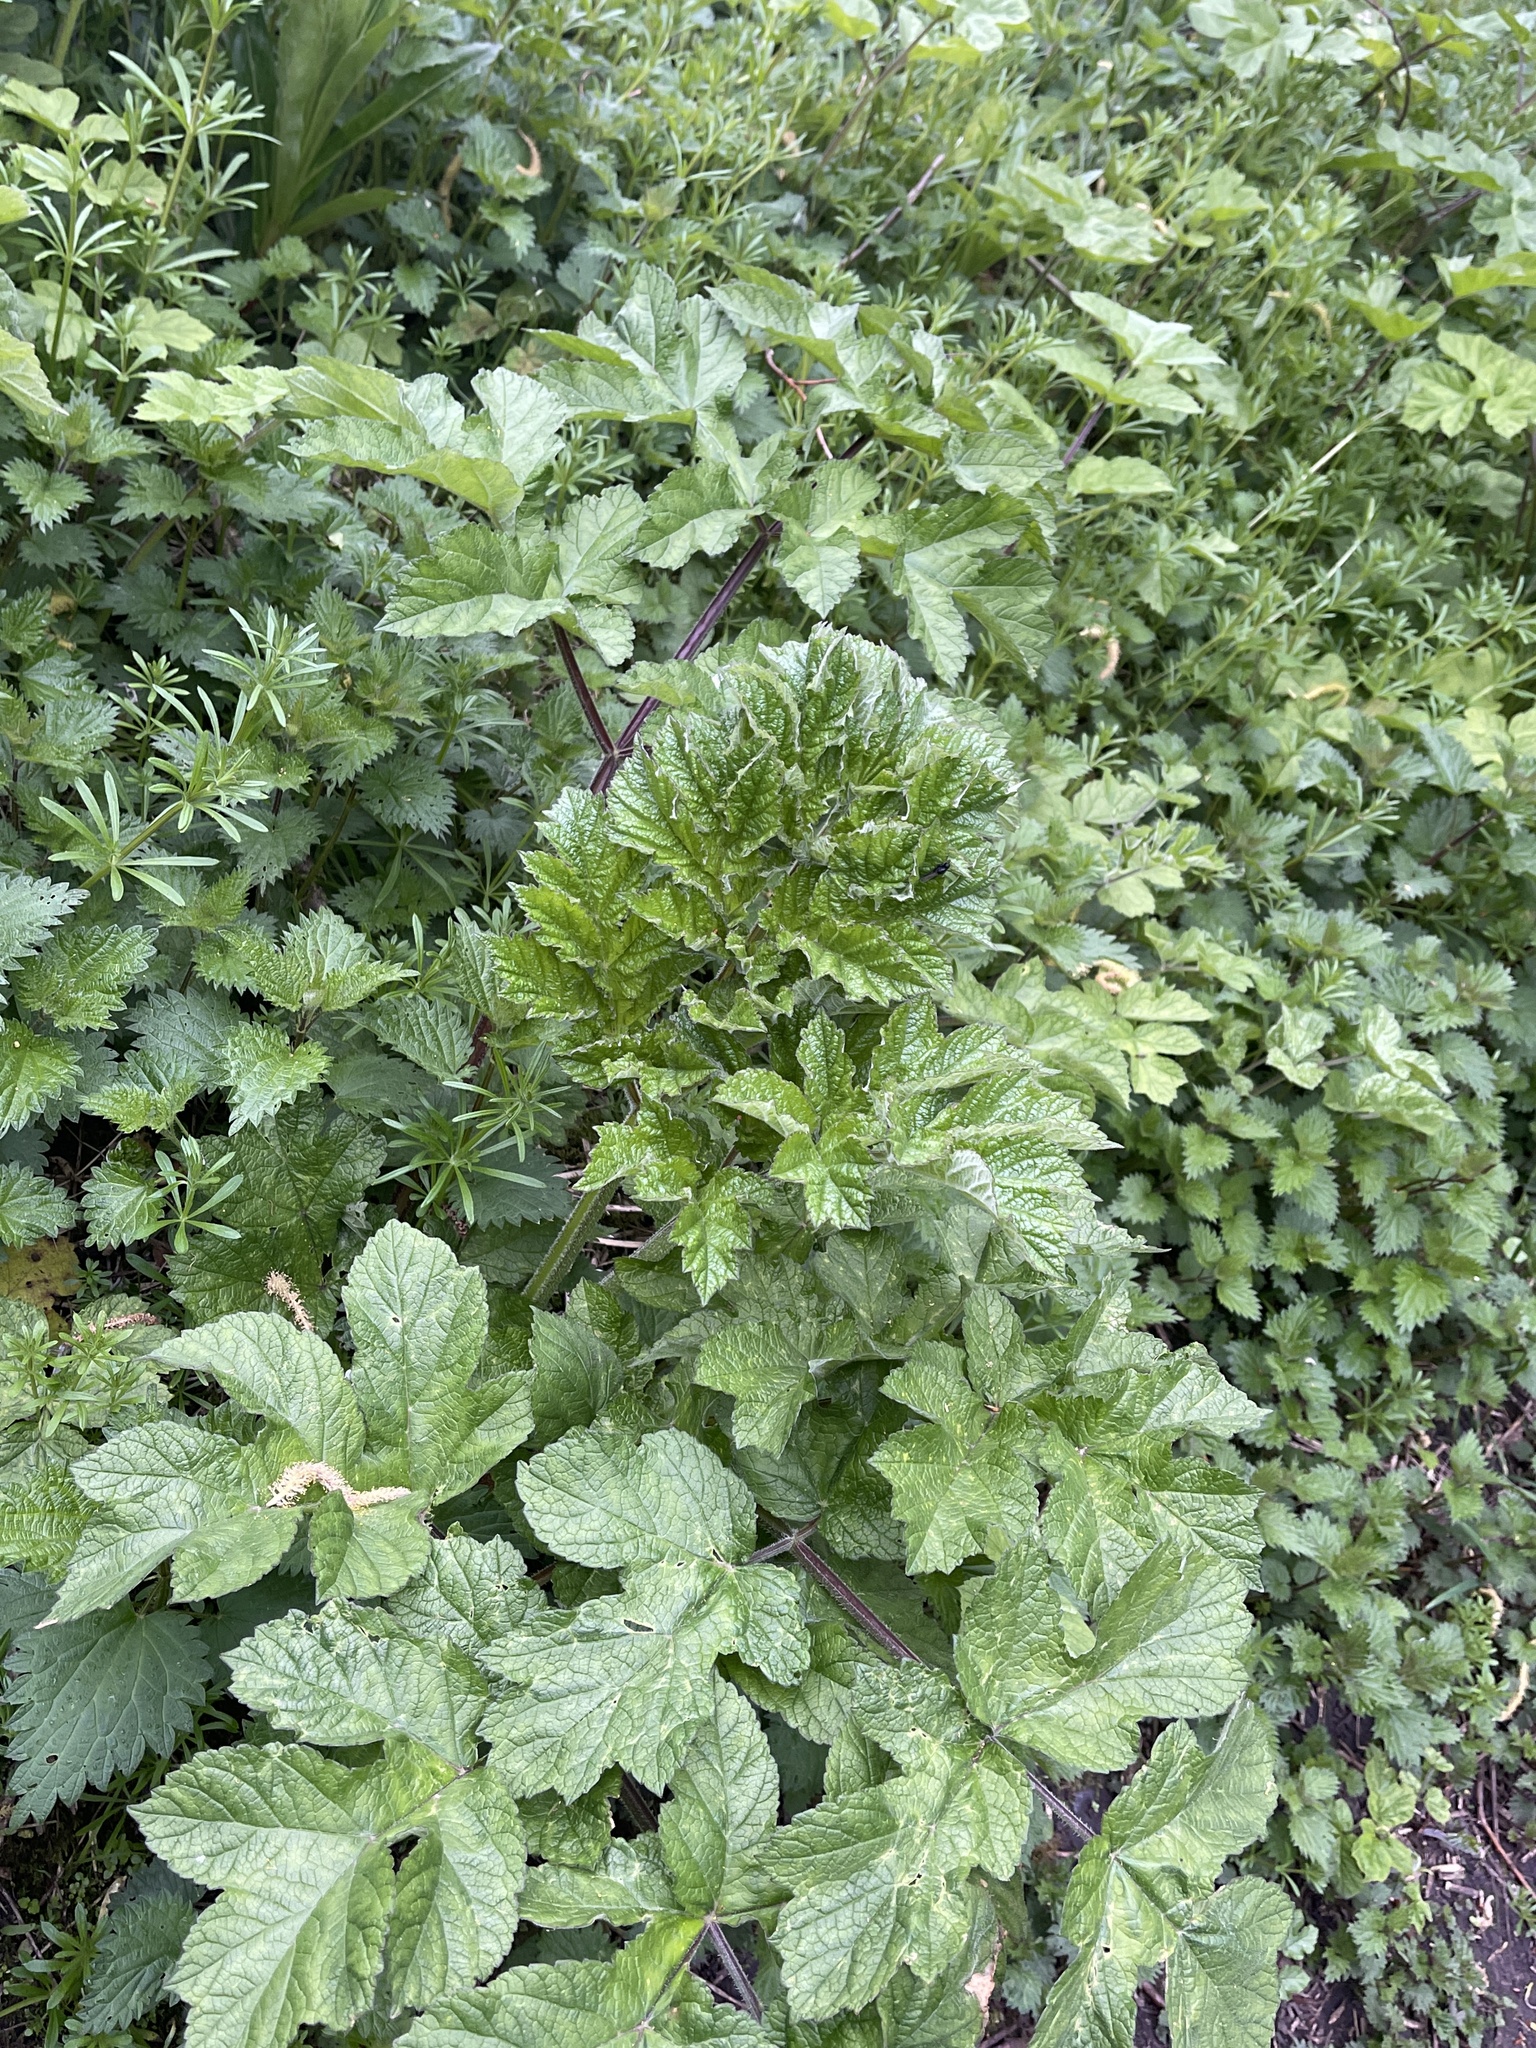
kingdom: Plantae
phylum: Tracheophyta
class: Magnoliopsida
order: Apiales
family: Apiaceae
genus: Heracleum
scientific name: Heracleum sphondylium
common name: Hogweed
